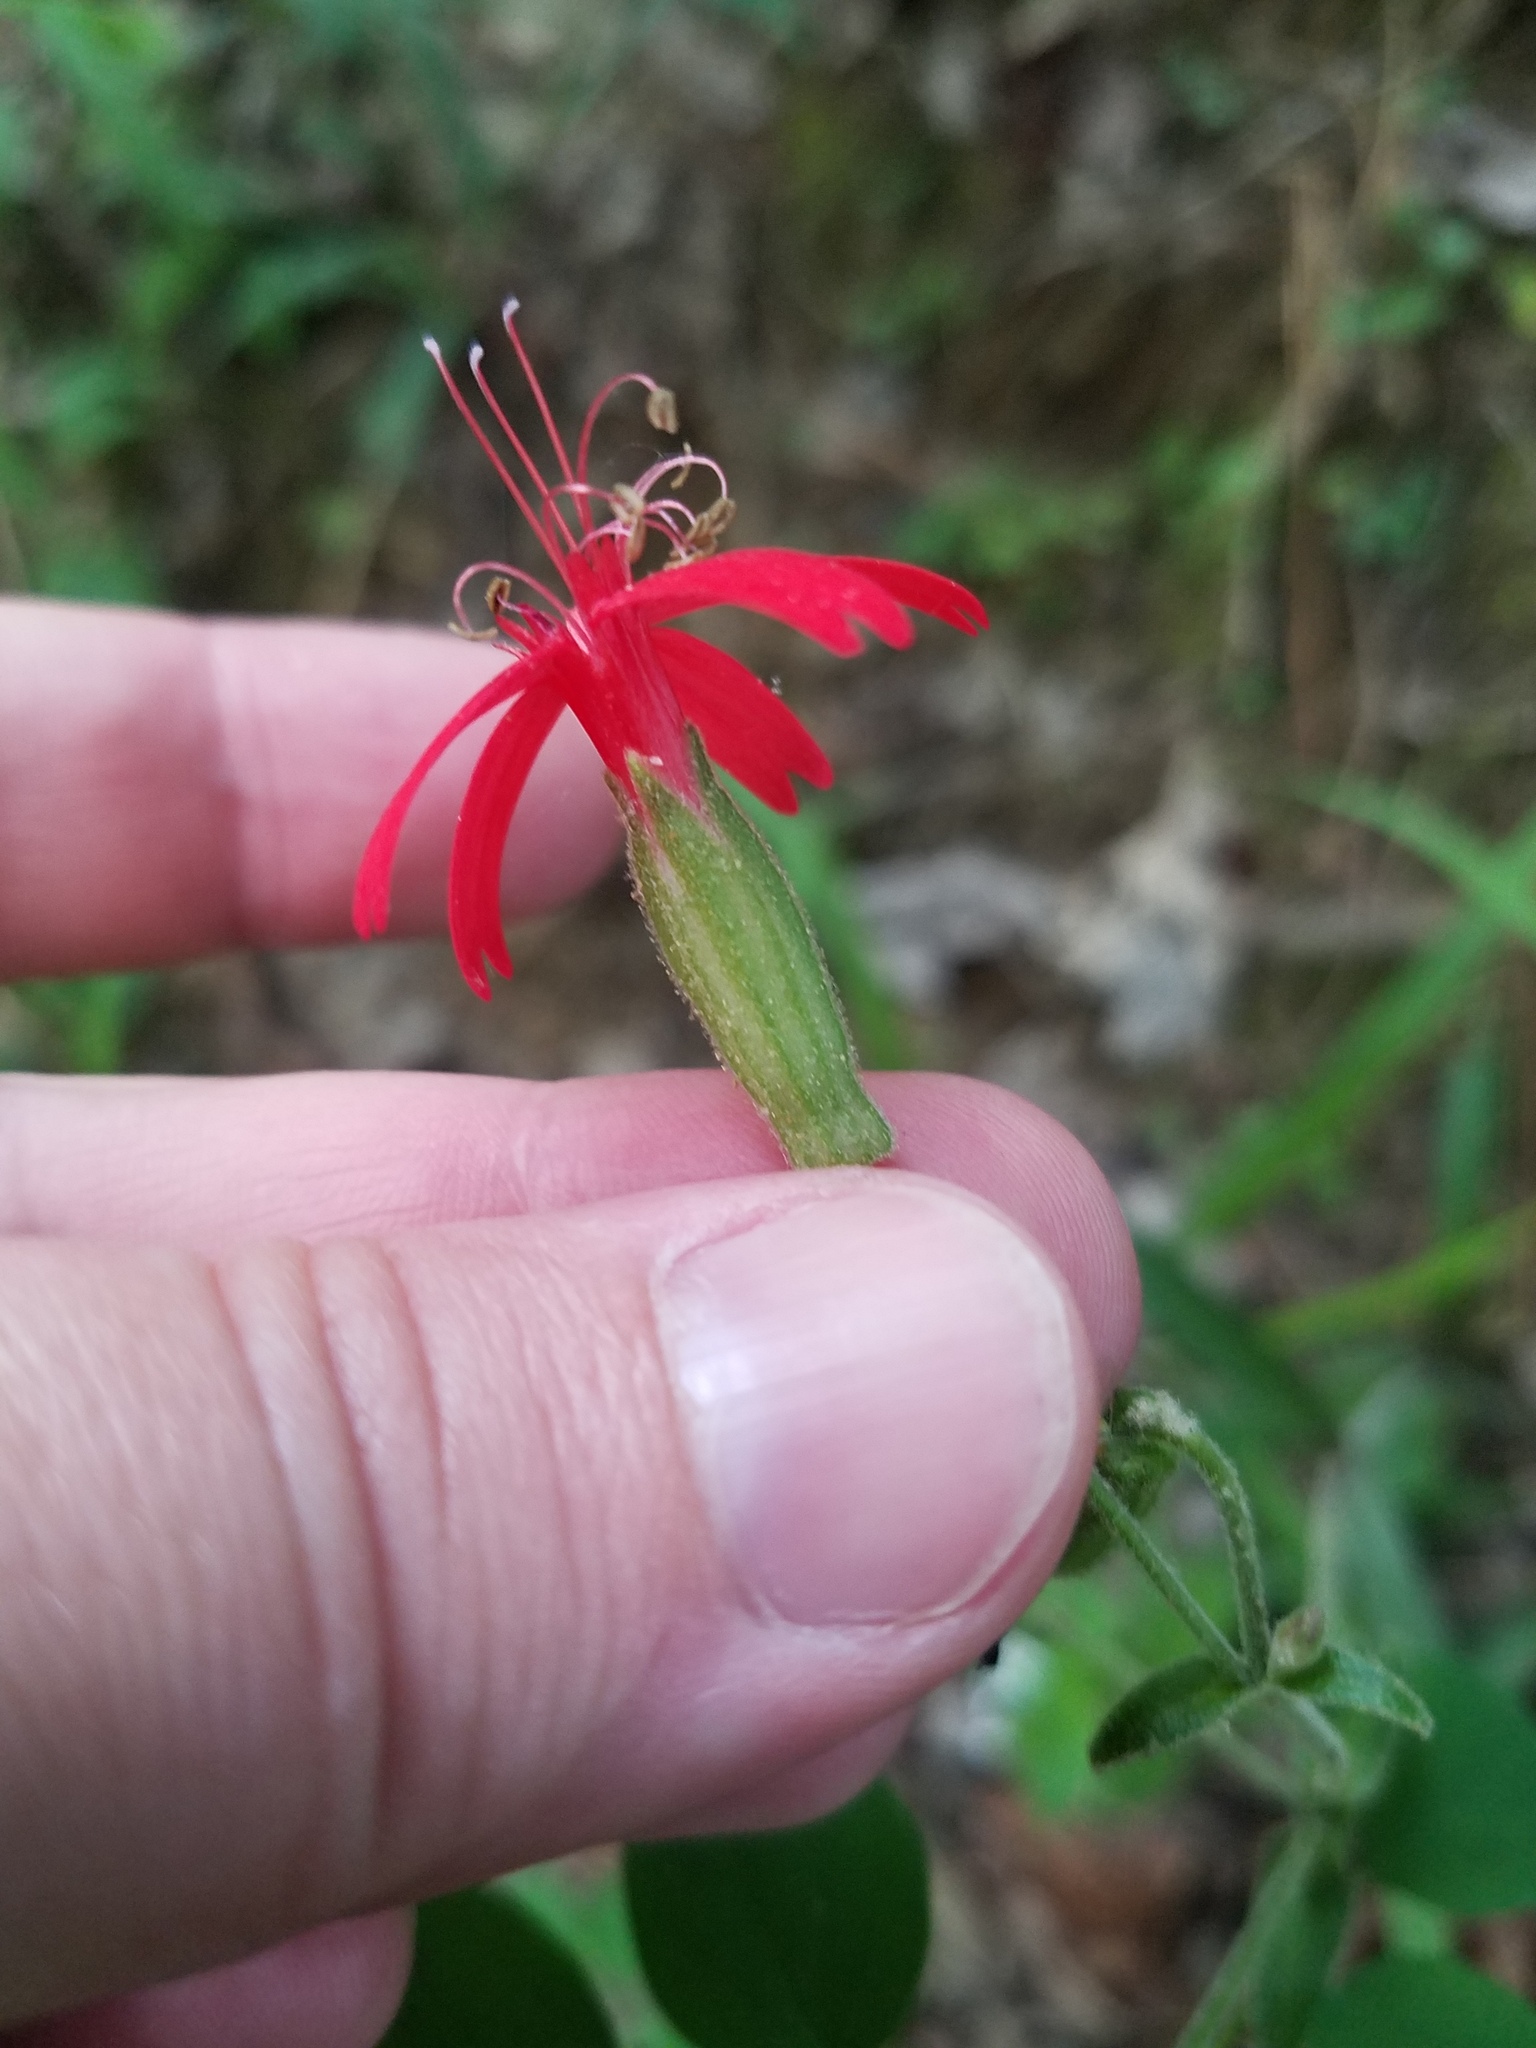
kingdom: Plantae
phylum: Tracheophyta
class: Magnoliopsida
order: Caryophyllales
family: Caryophyllaceae
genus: Silene
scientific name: Silene virginica
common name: Fire-pink
